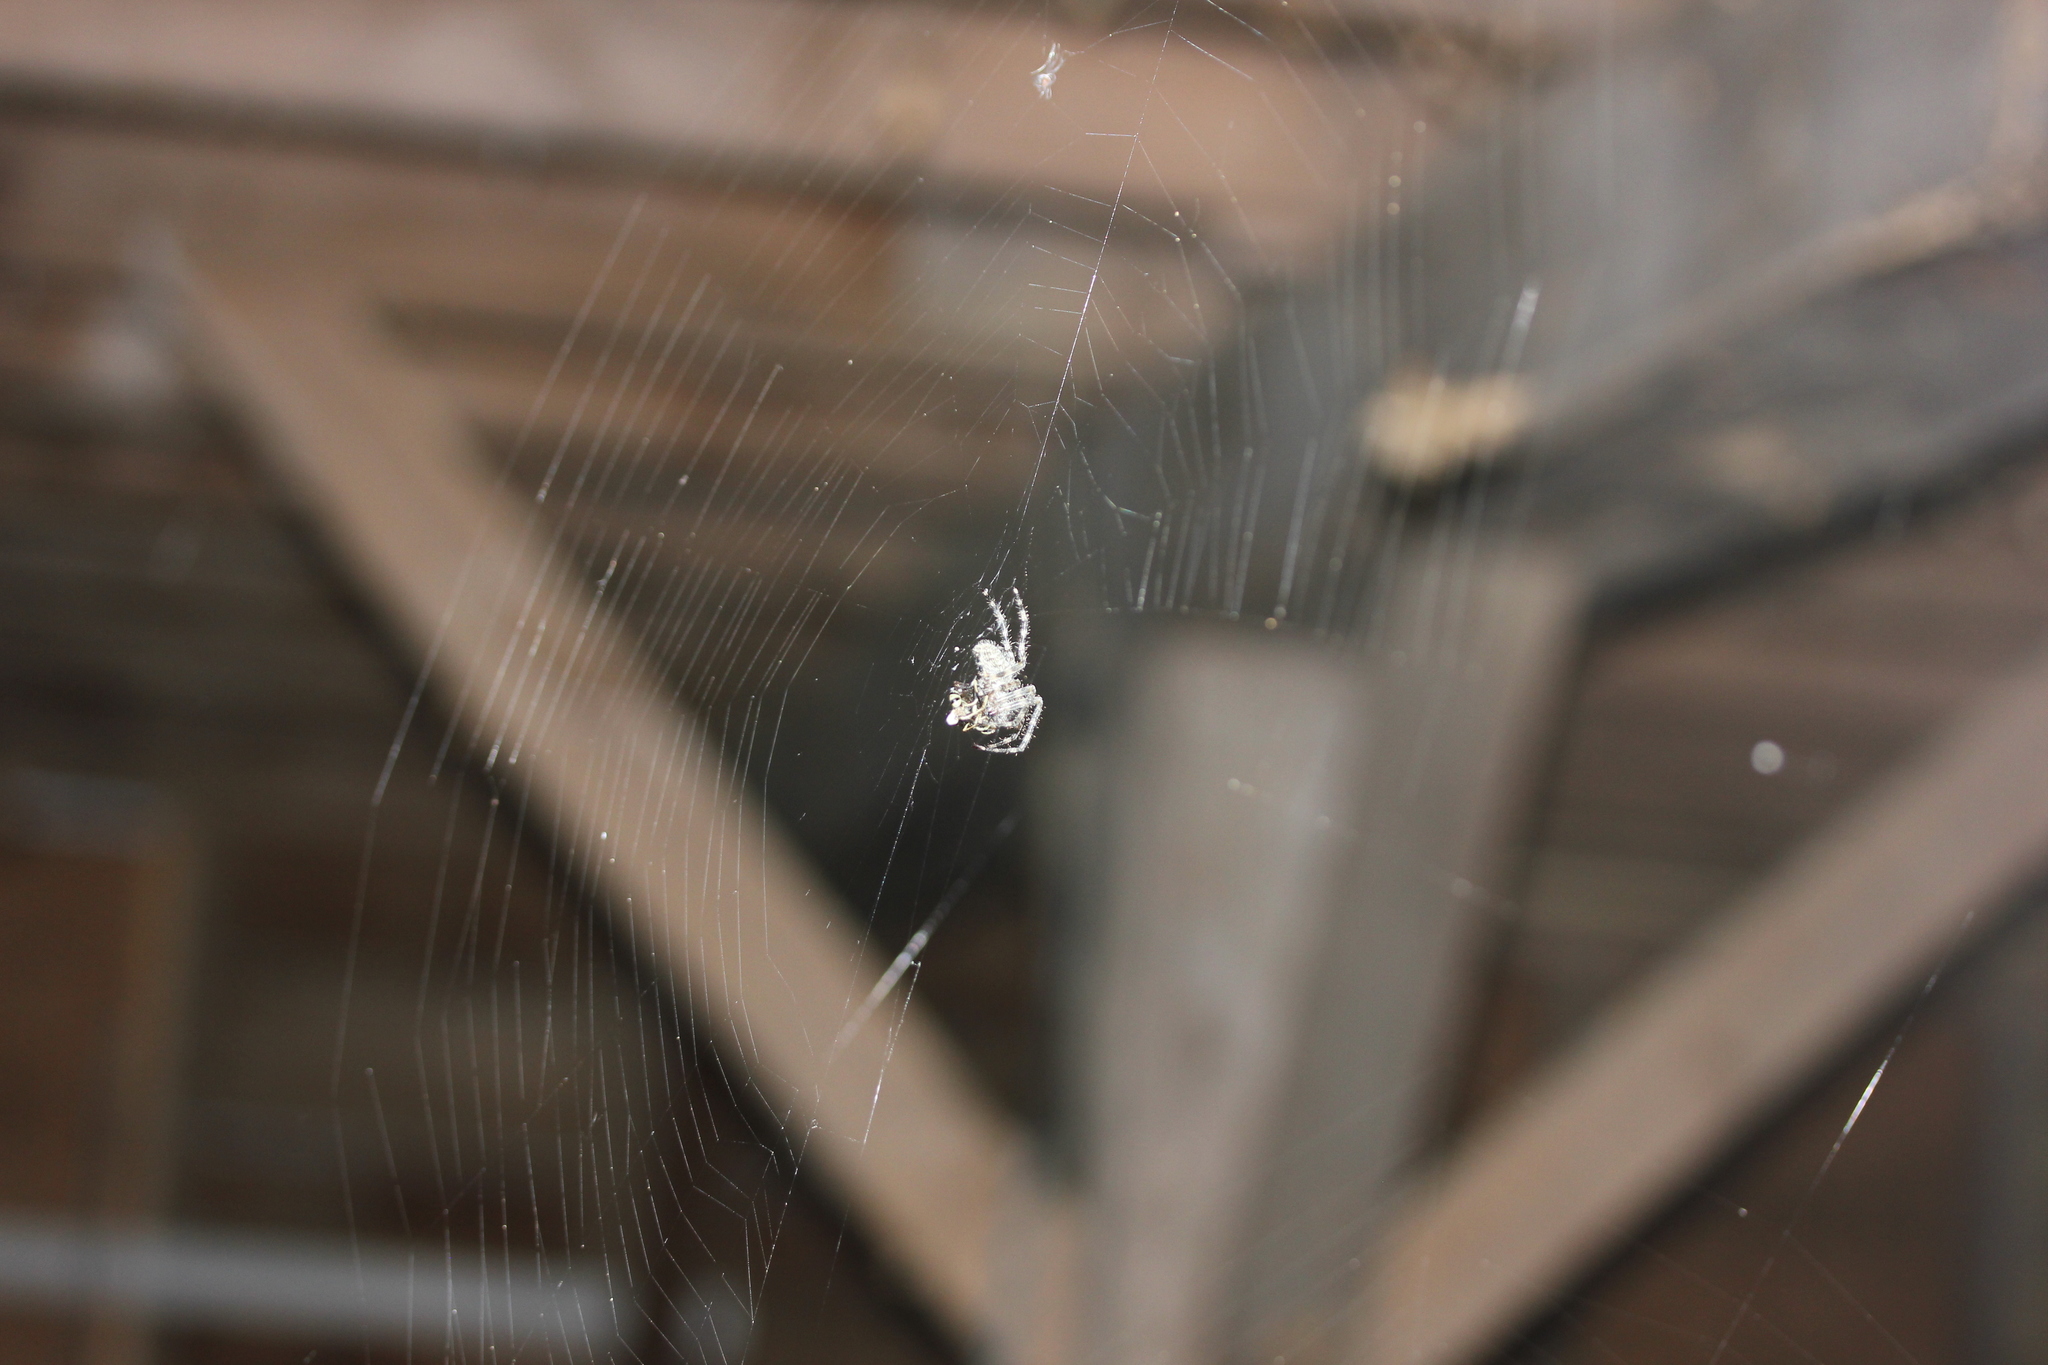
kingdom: Animalia
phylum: Arthropoda
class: Arachnida
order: Araneae
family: Araneidae
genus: Araneus
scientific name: Araneus cavaticus
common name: Barn orbweaver
